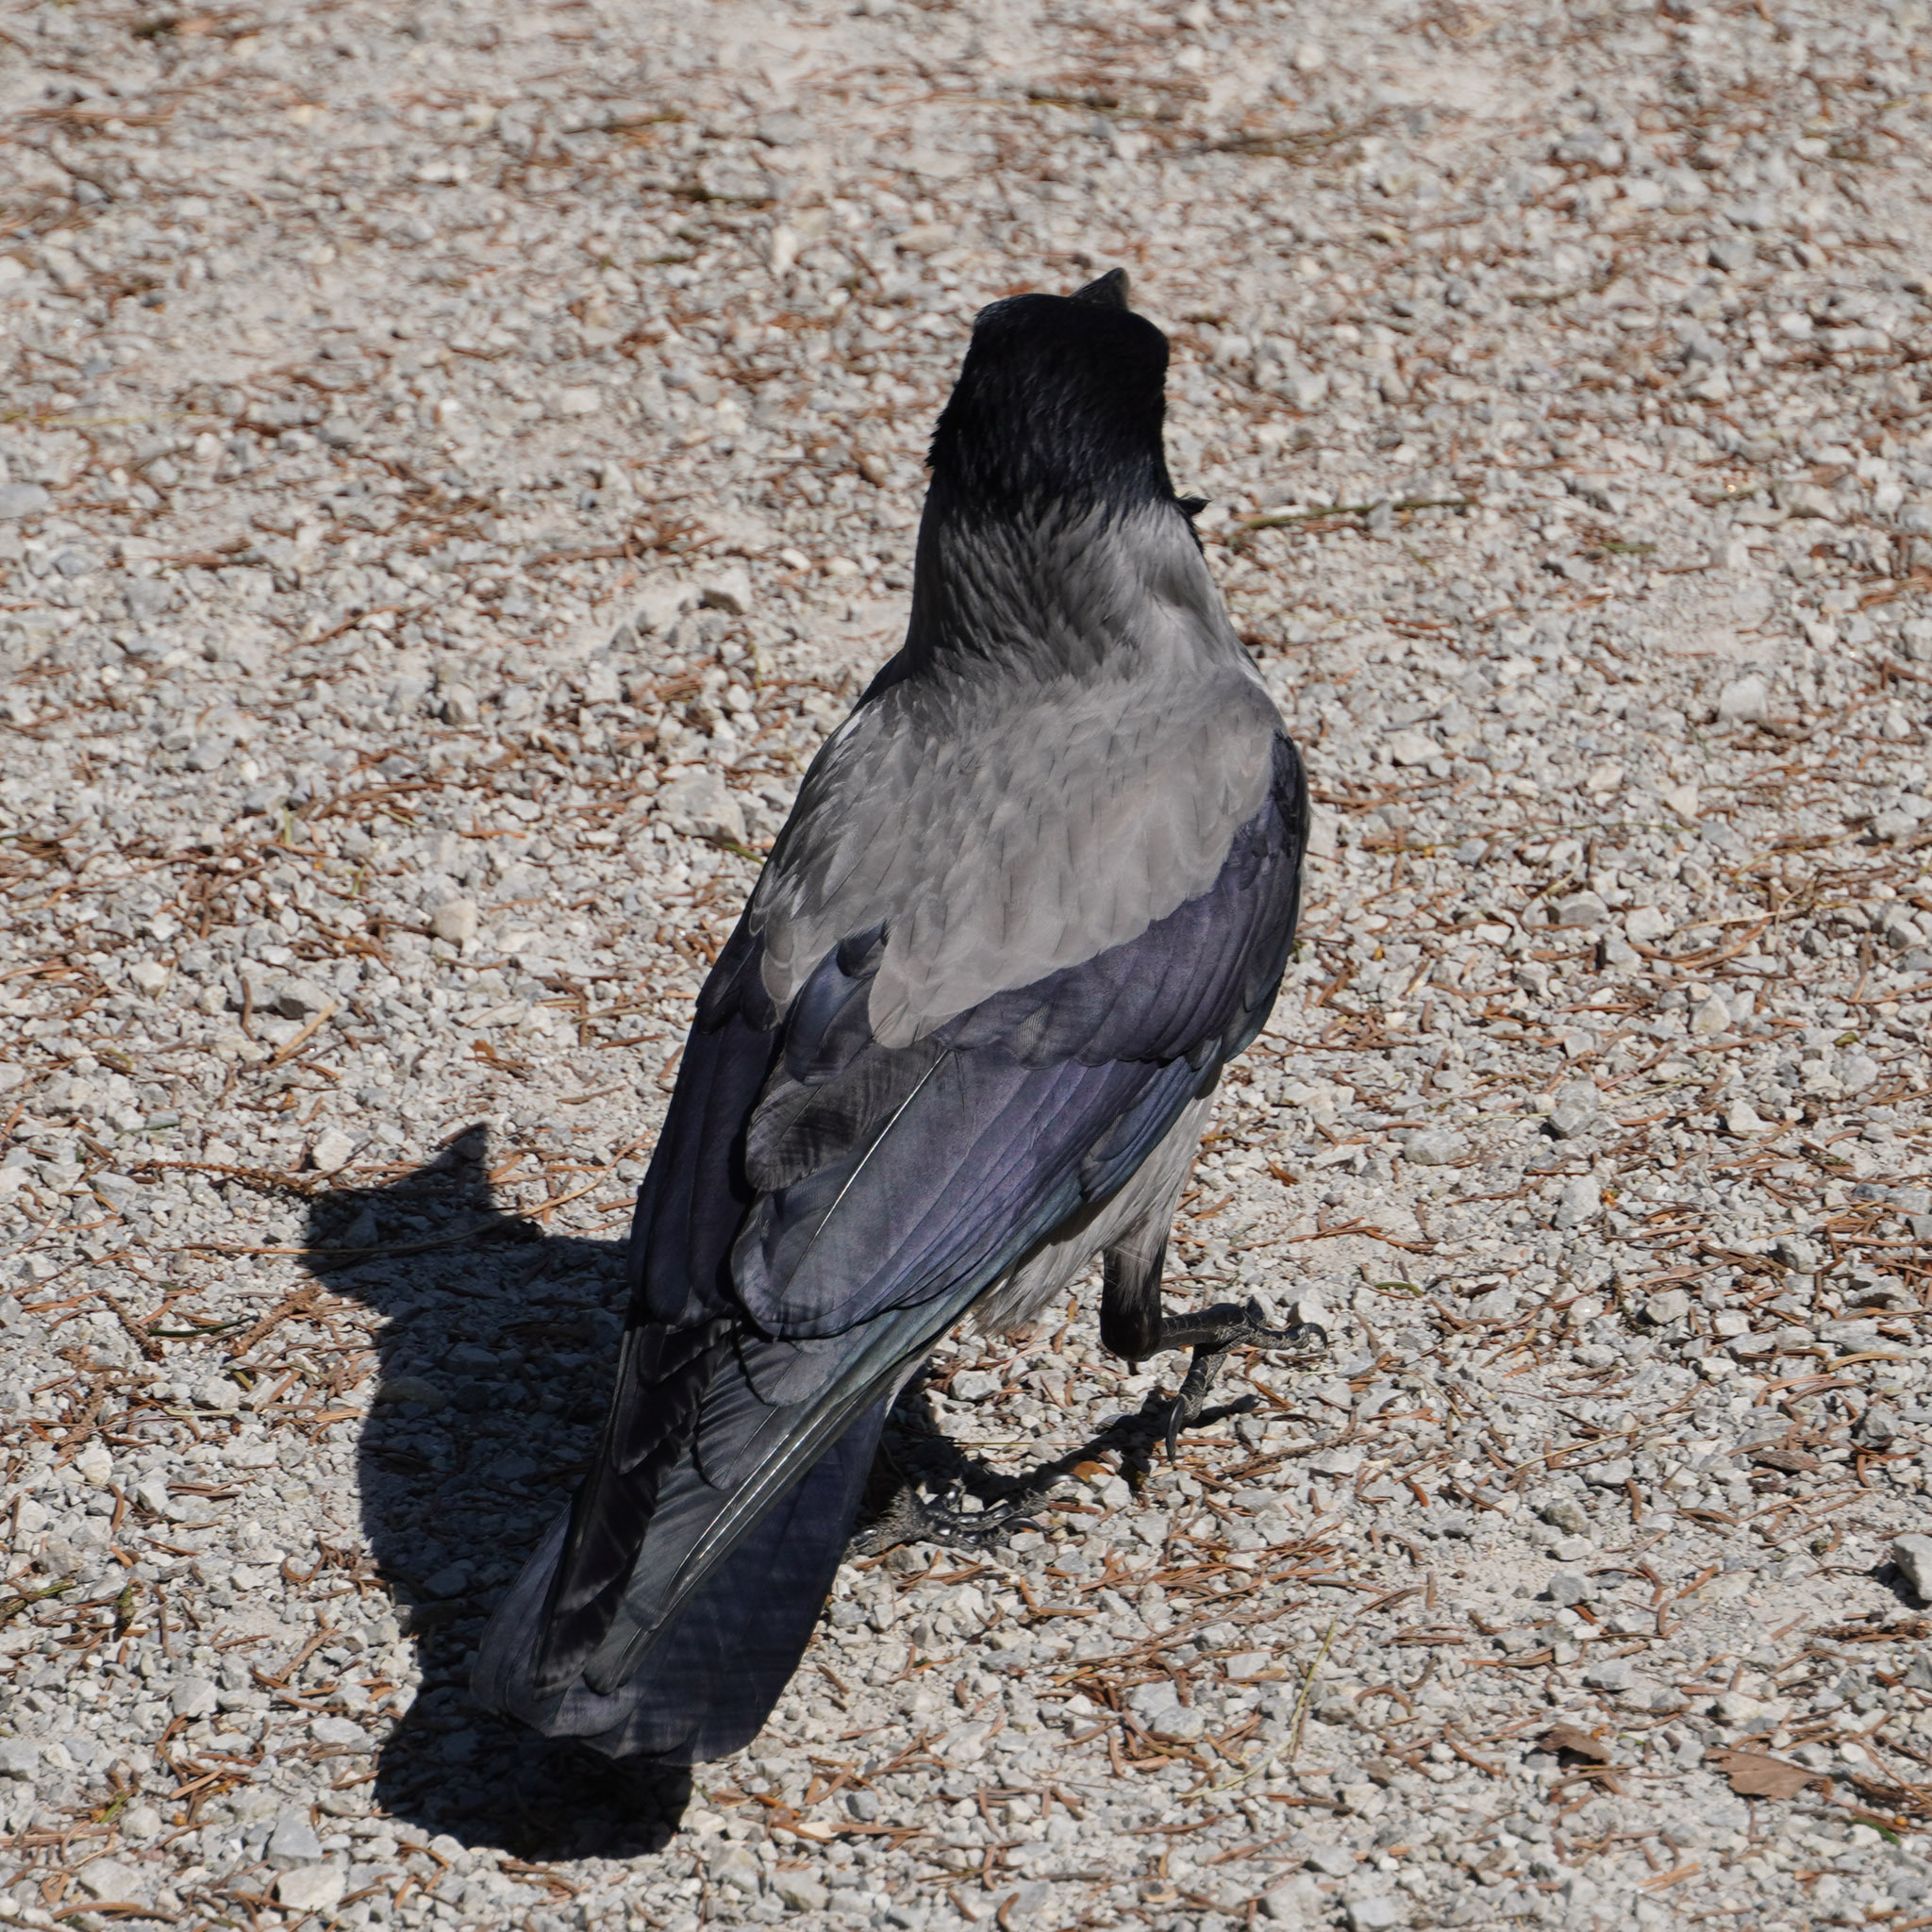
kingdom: Animalia
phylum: Chordata
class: Aves
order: Passeriformes
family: Corvidae
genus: Corvus
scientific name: Corvus cornix
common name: Hooded crow
